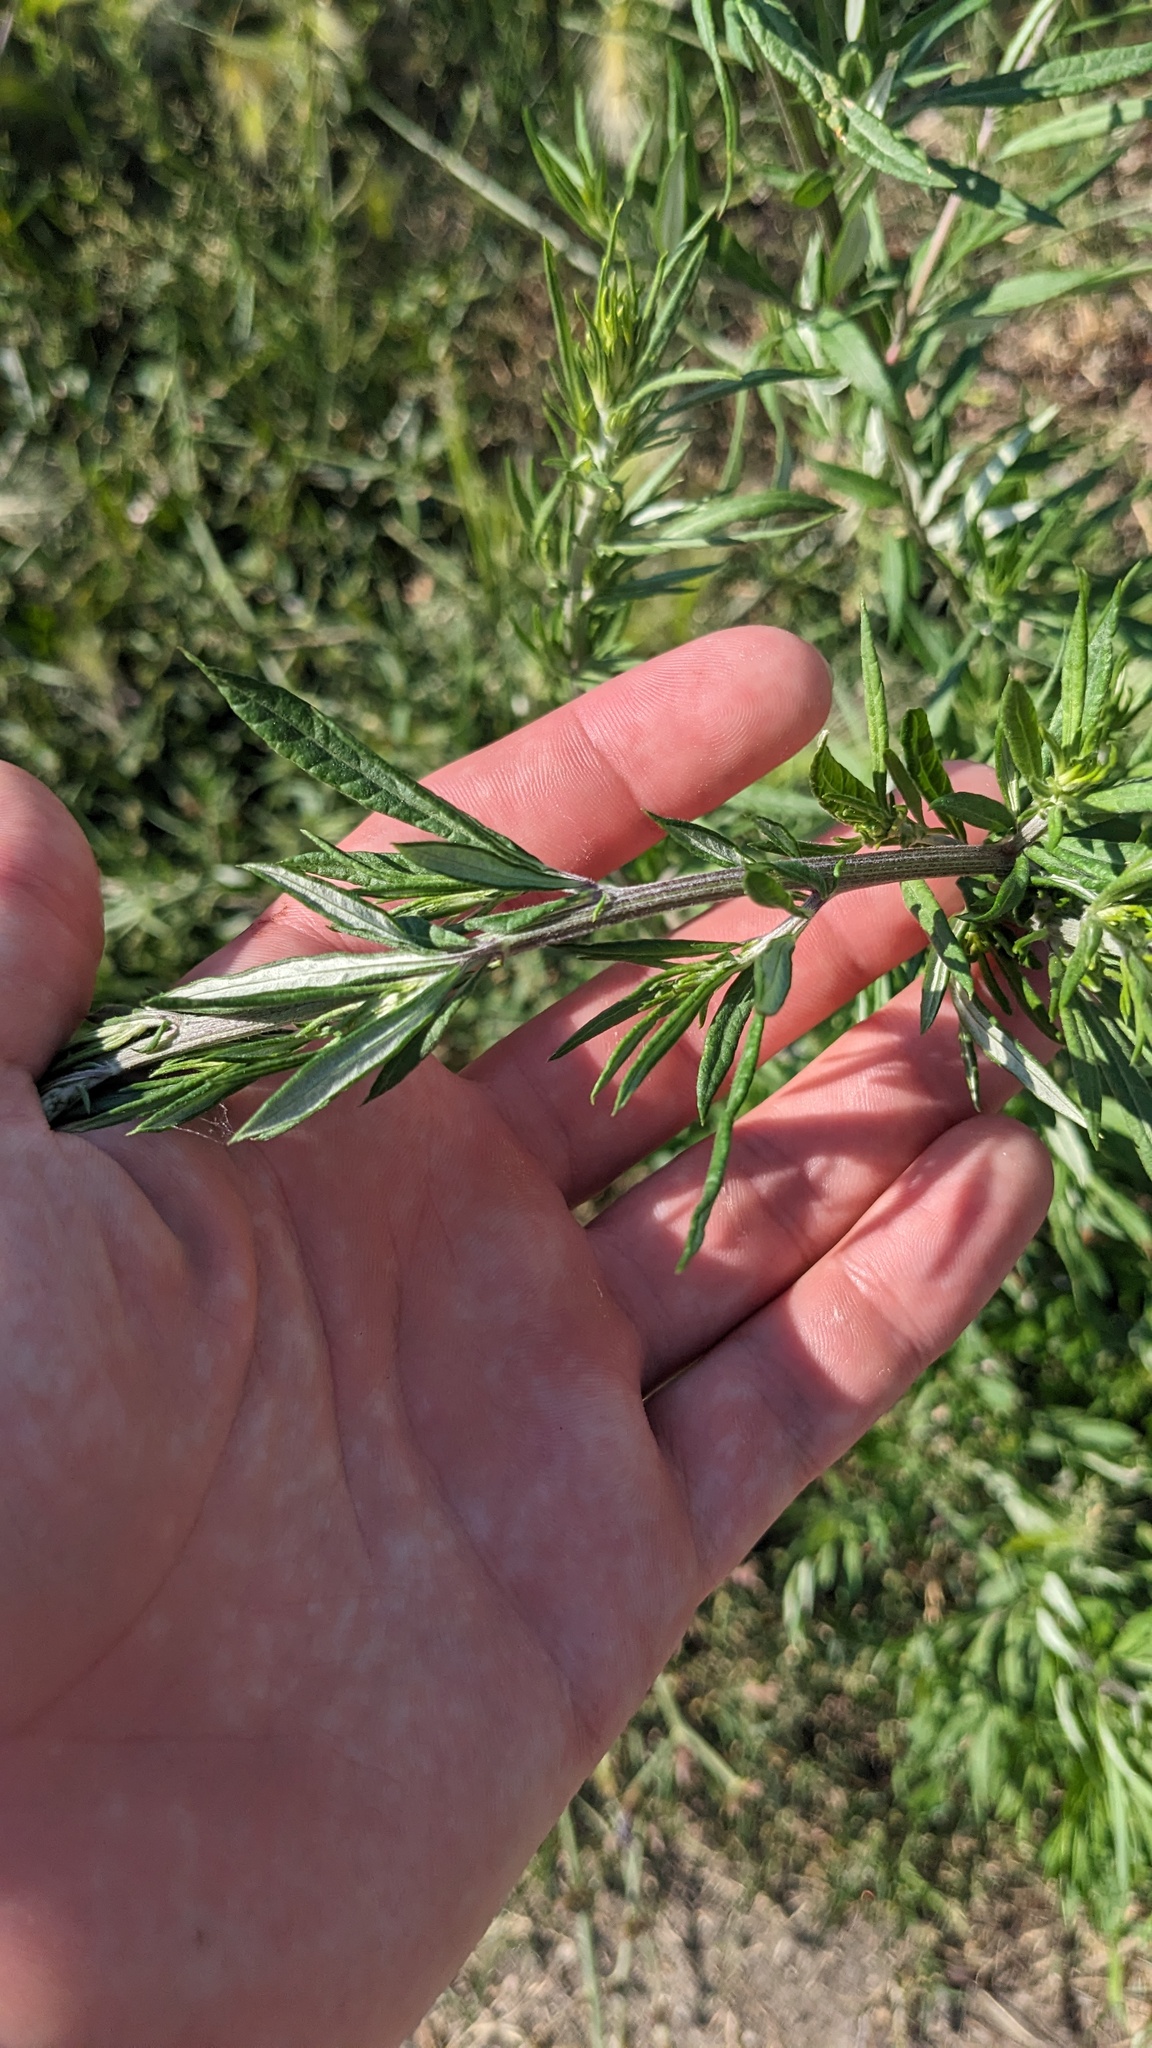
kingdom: Plantae
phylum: Tracheophyta
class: Magnoliopsida
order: Asterales
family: Asteraceae
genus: Artemisia
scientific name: Artemisia vulgaris
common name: Mugwort
